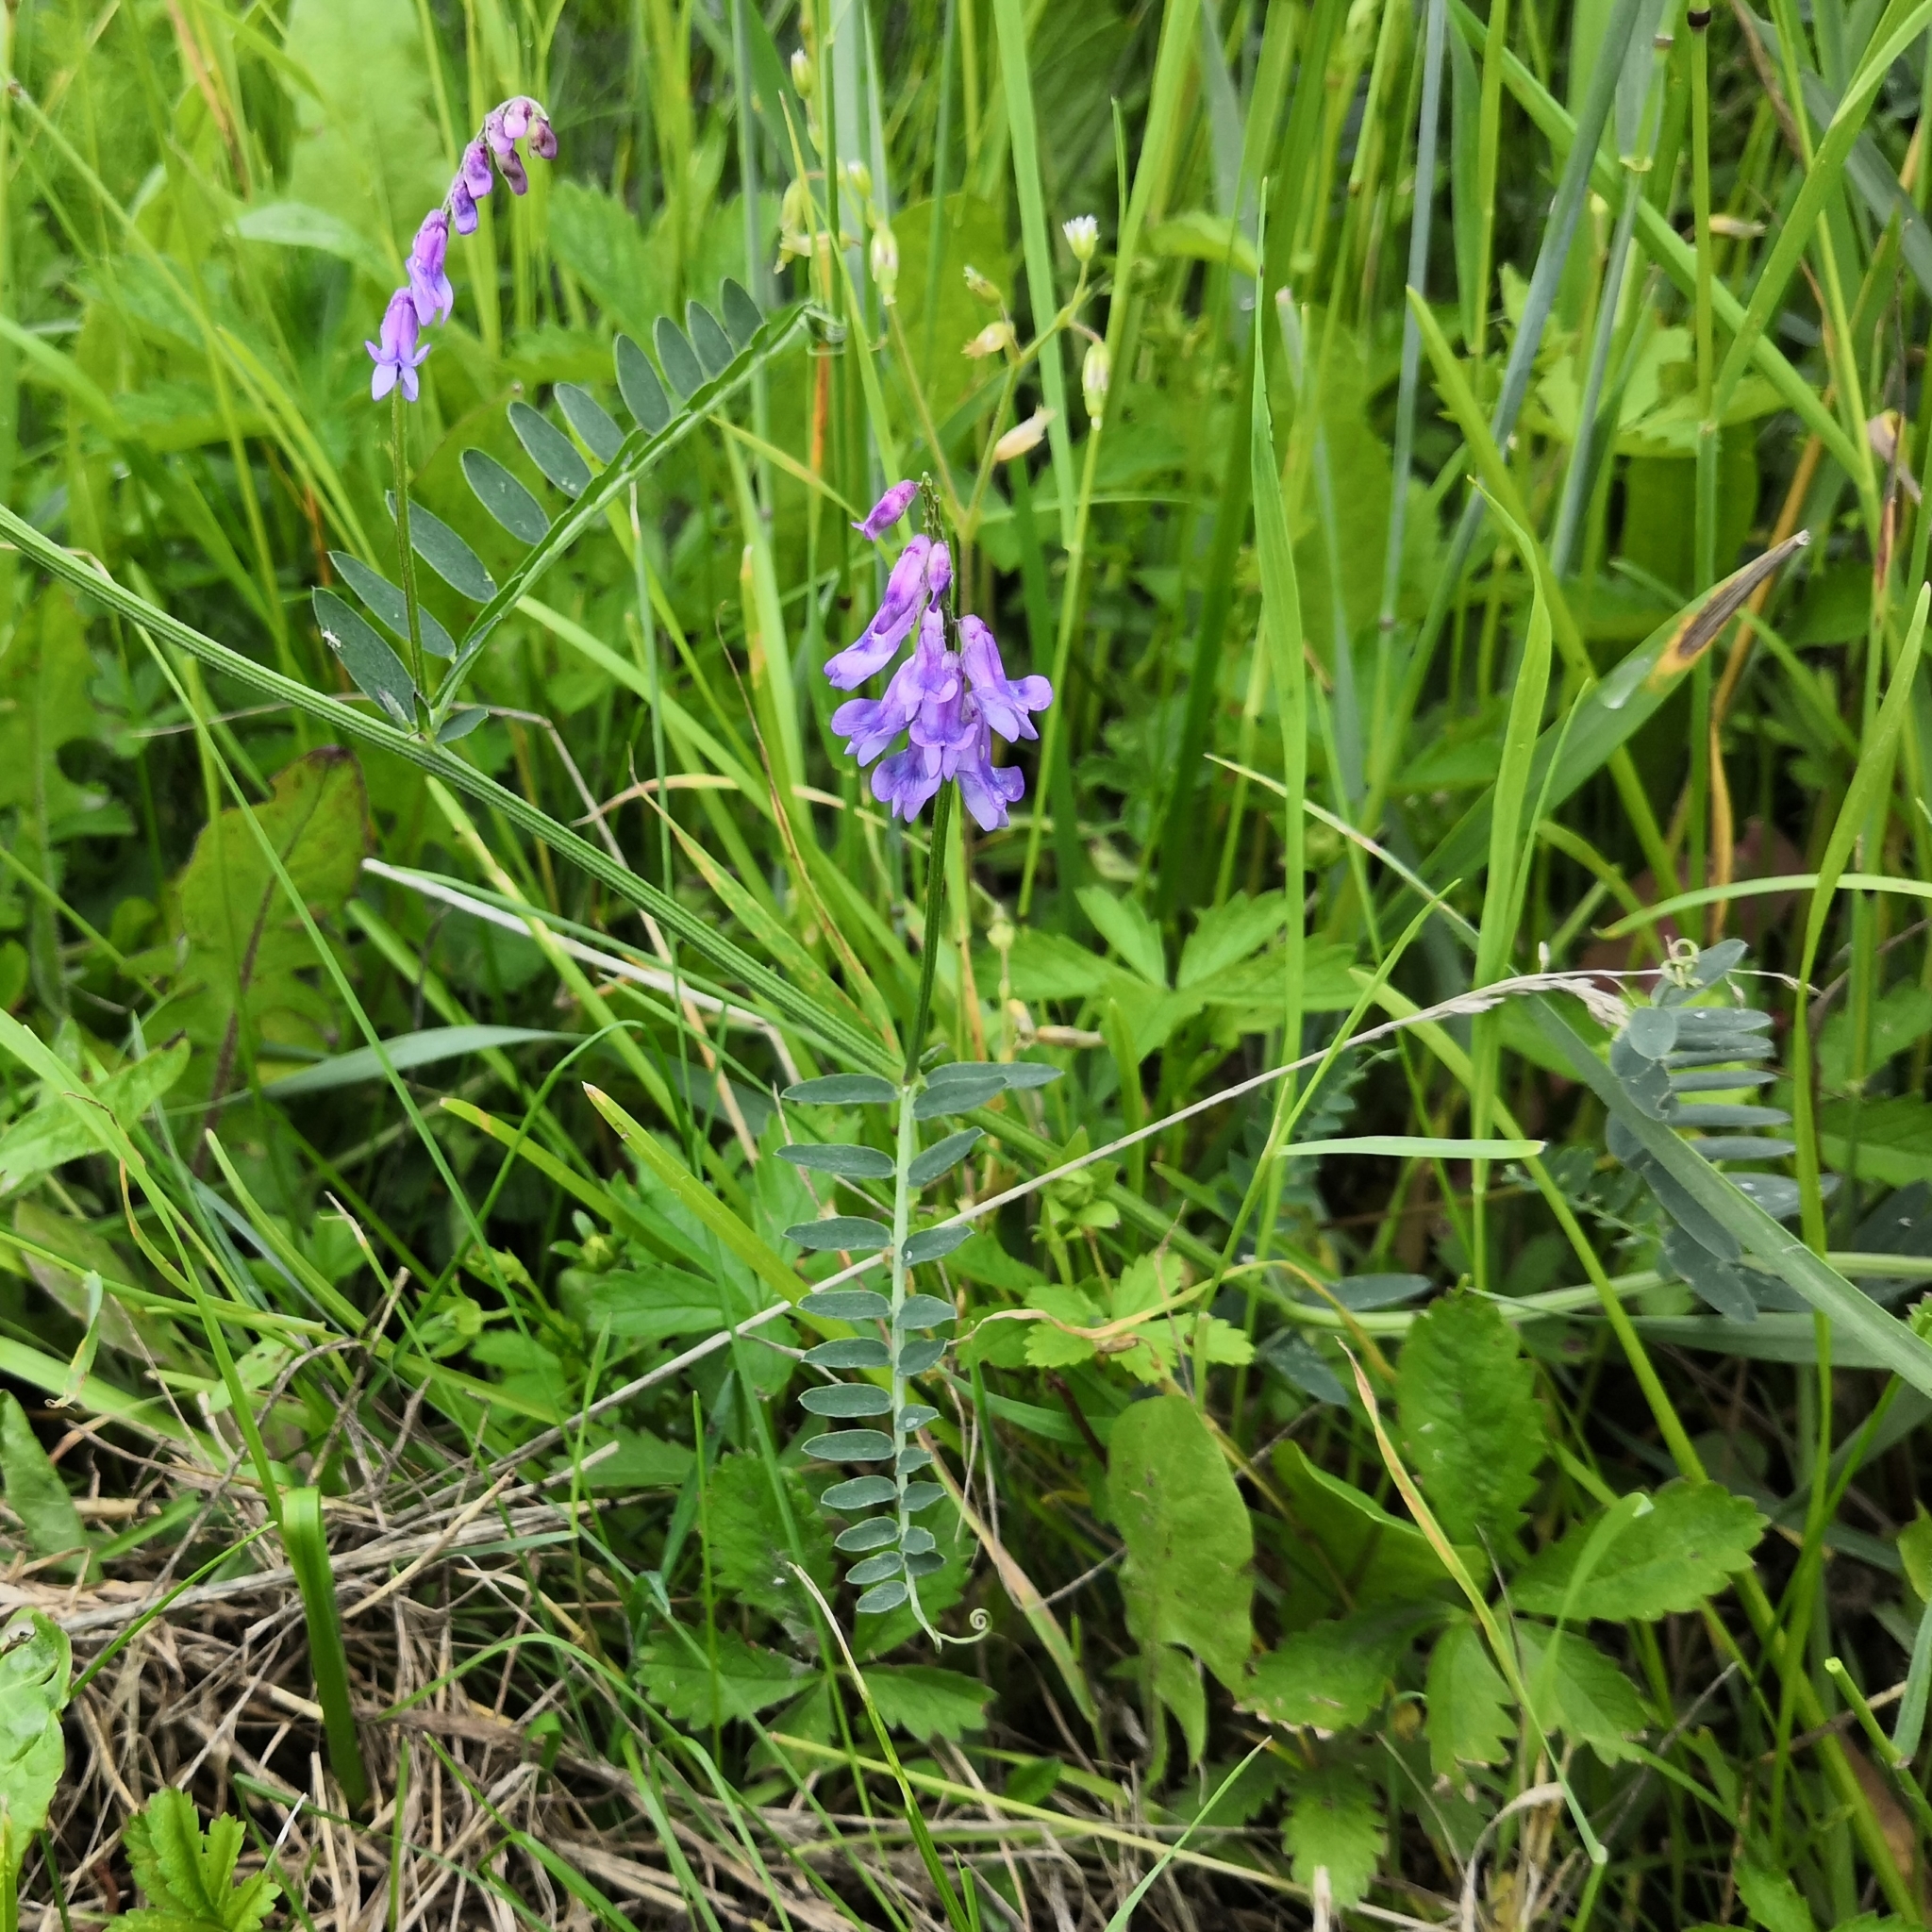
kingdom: Plantae
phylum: Tracheophyta
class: Magnoliopsida
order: Fabales
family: Fabaceae
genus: Vicia
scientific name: Vicia cracca
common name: Bird vetch
